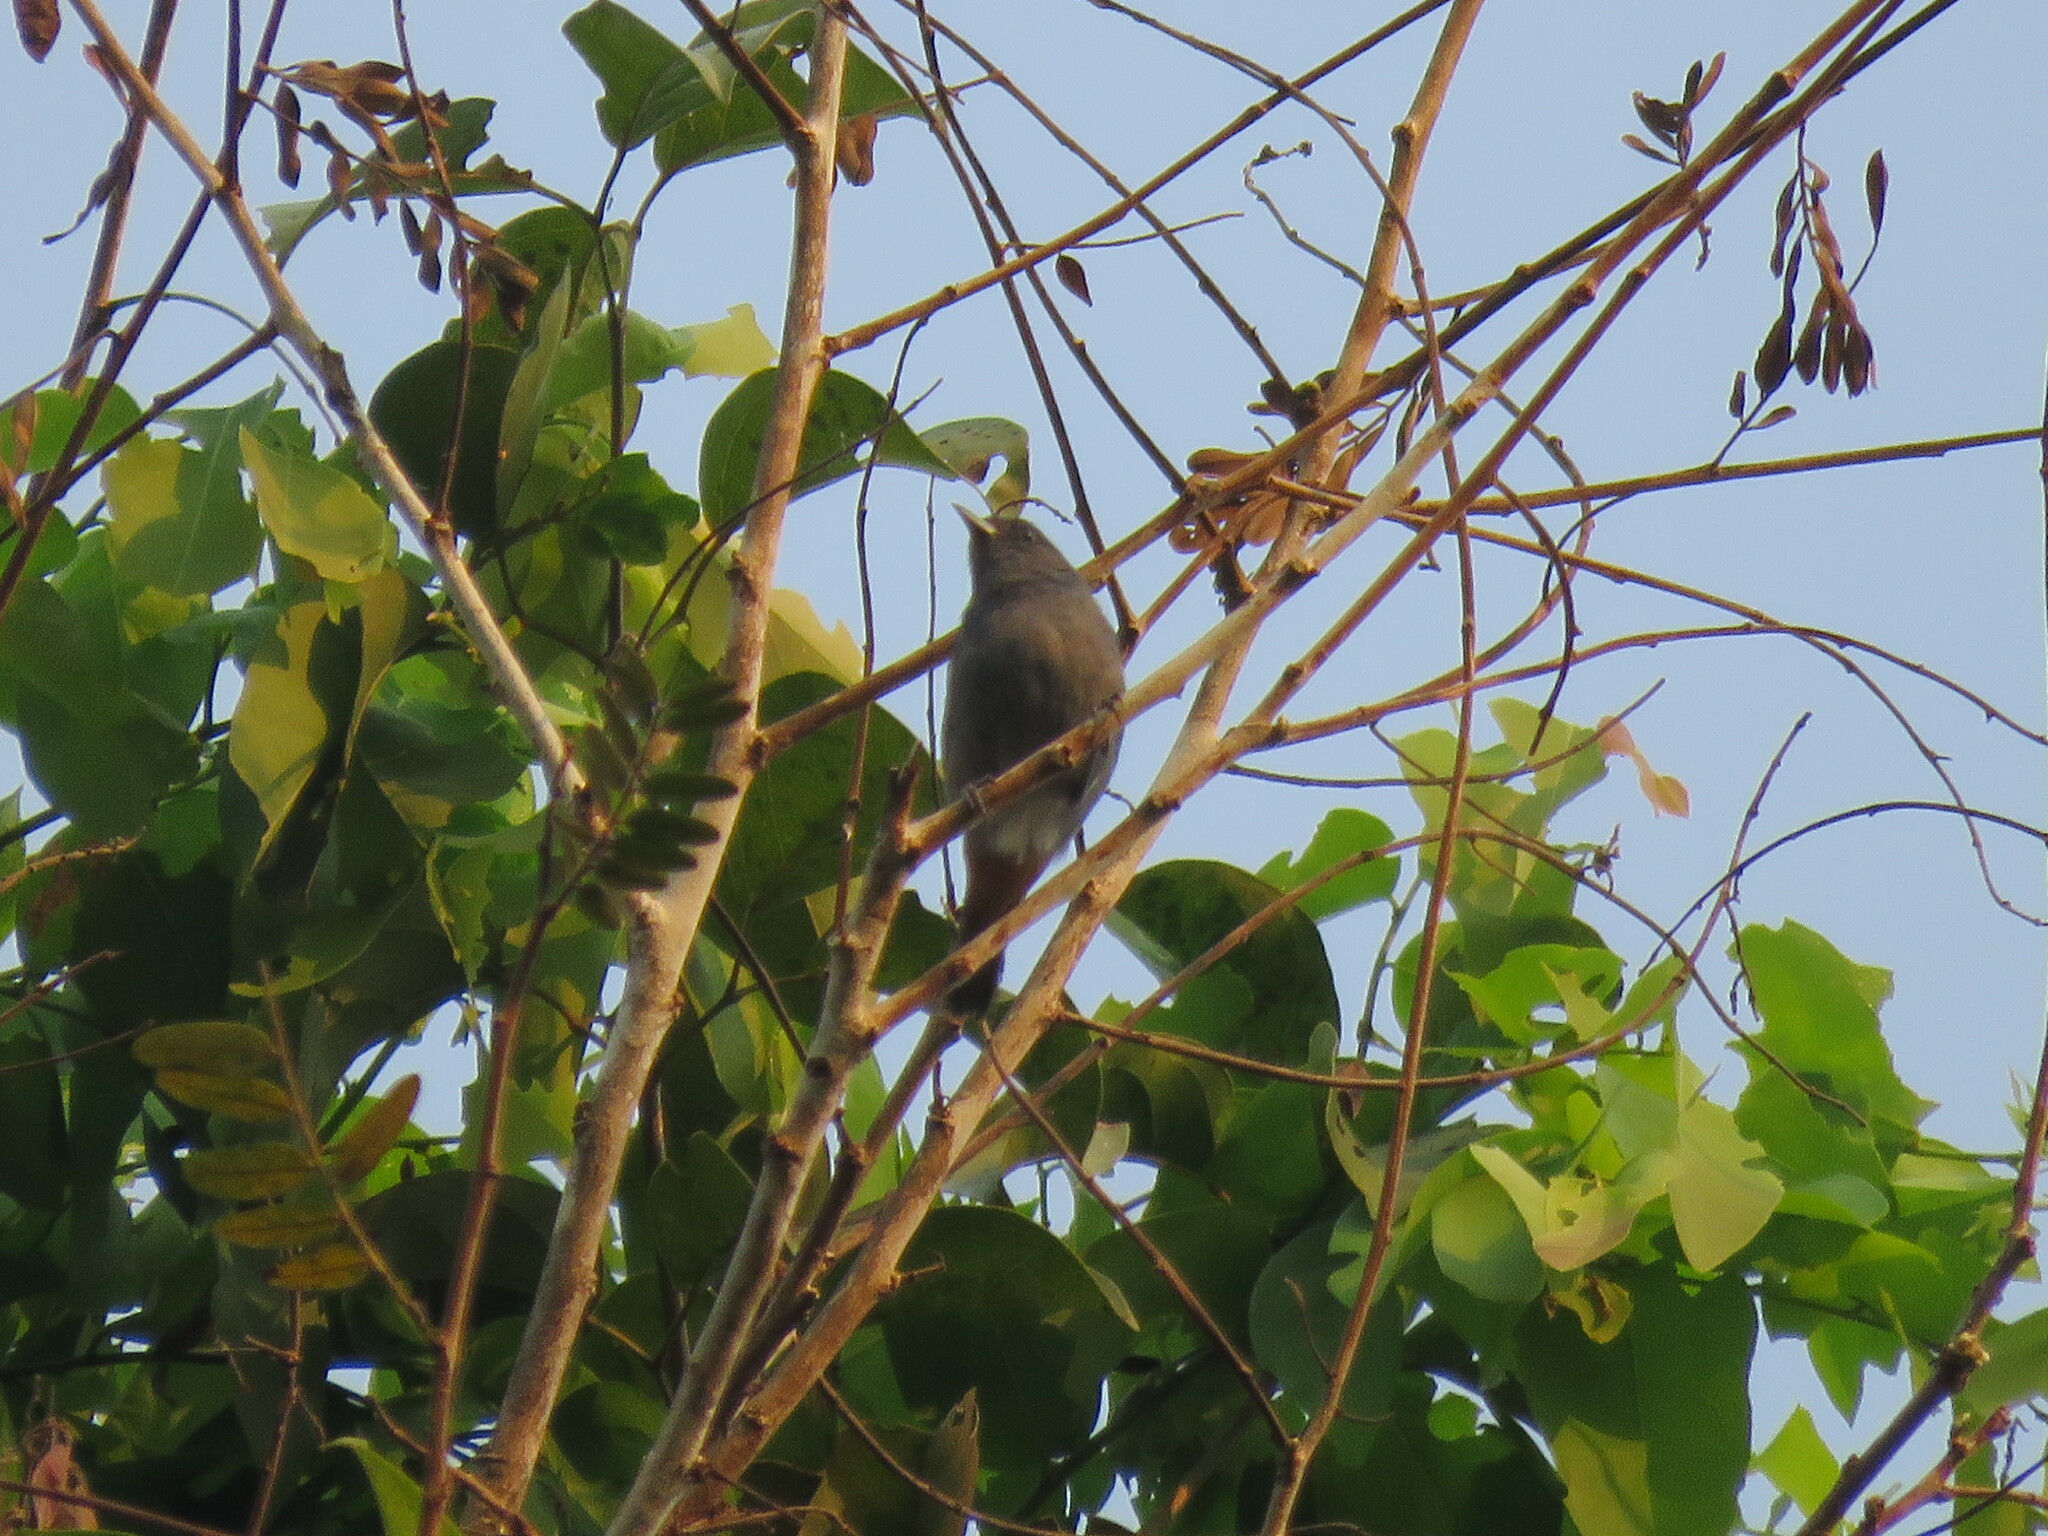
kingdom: Animalia
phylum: Chordata
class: Aves
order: Passeriformes
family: Thraupidae
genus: Conirostrum
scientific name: Conirostrum speciosum
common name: Chestnut-vented conebill
